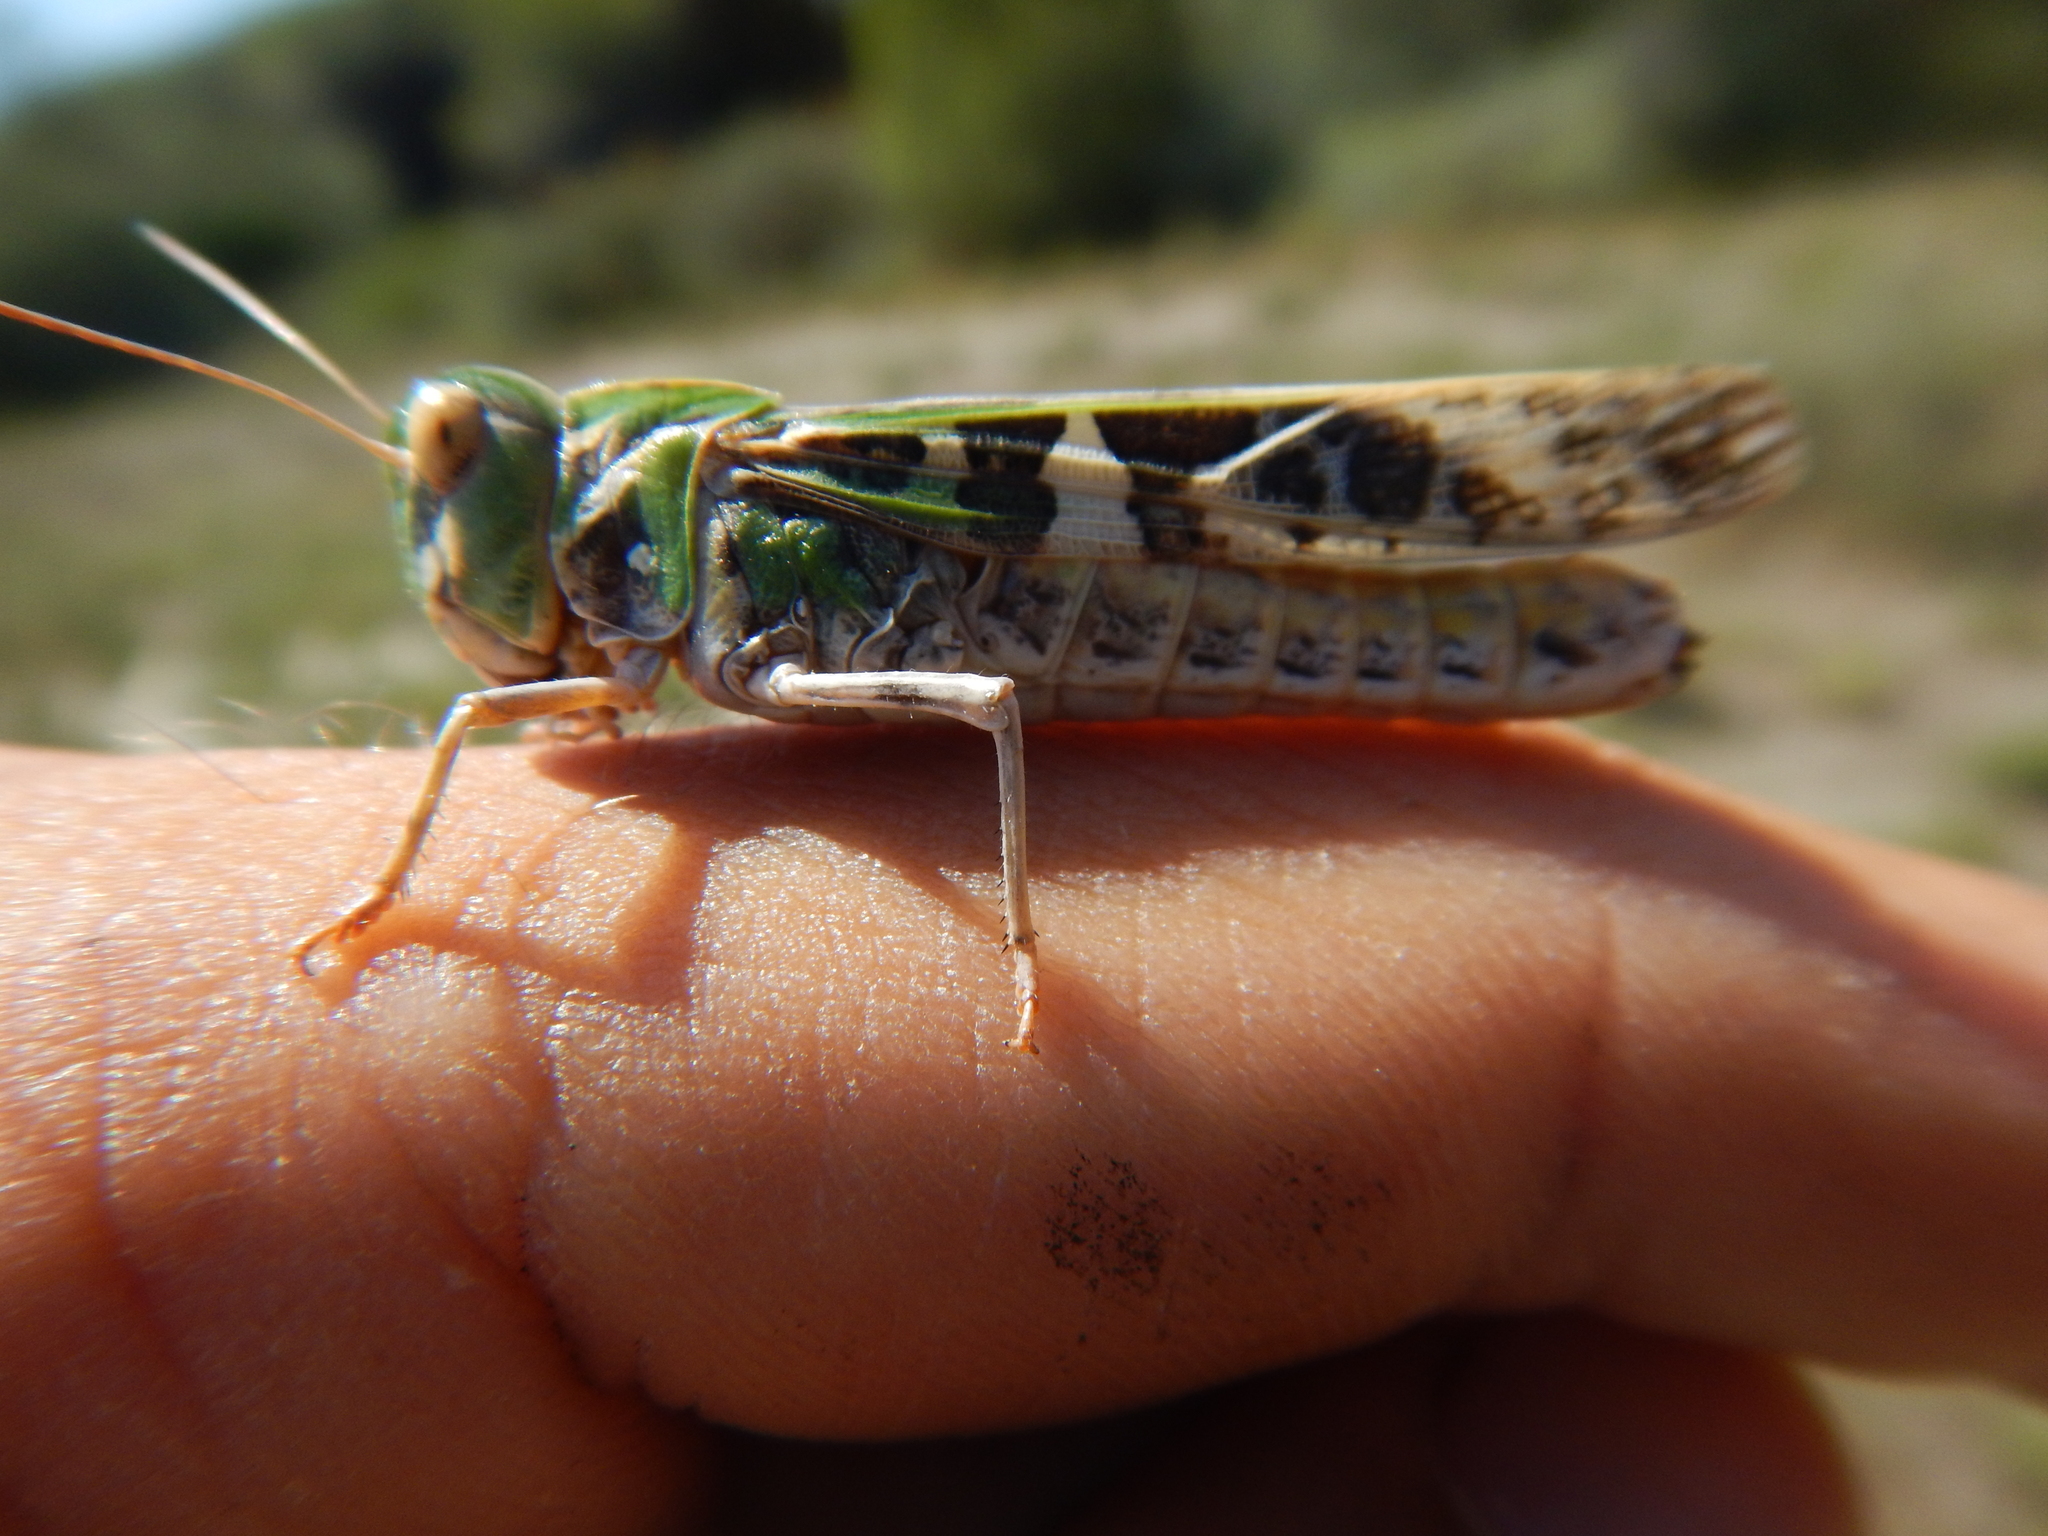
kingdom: Animalia
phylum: Arthropoda
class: Insecta
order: Orthoptera
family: Acrididae
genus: Oedaleus
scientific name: Oedaleus decorus
